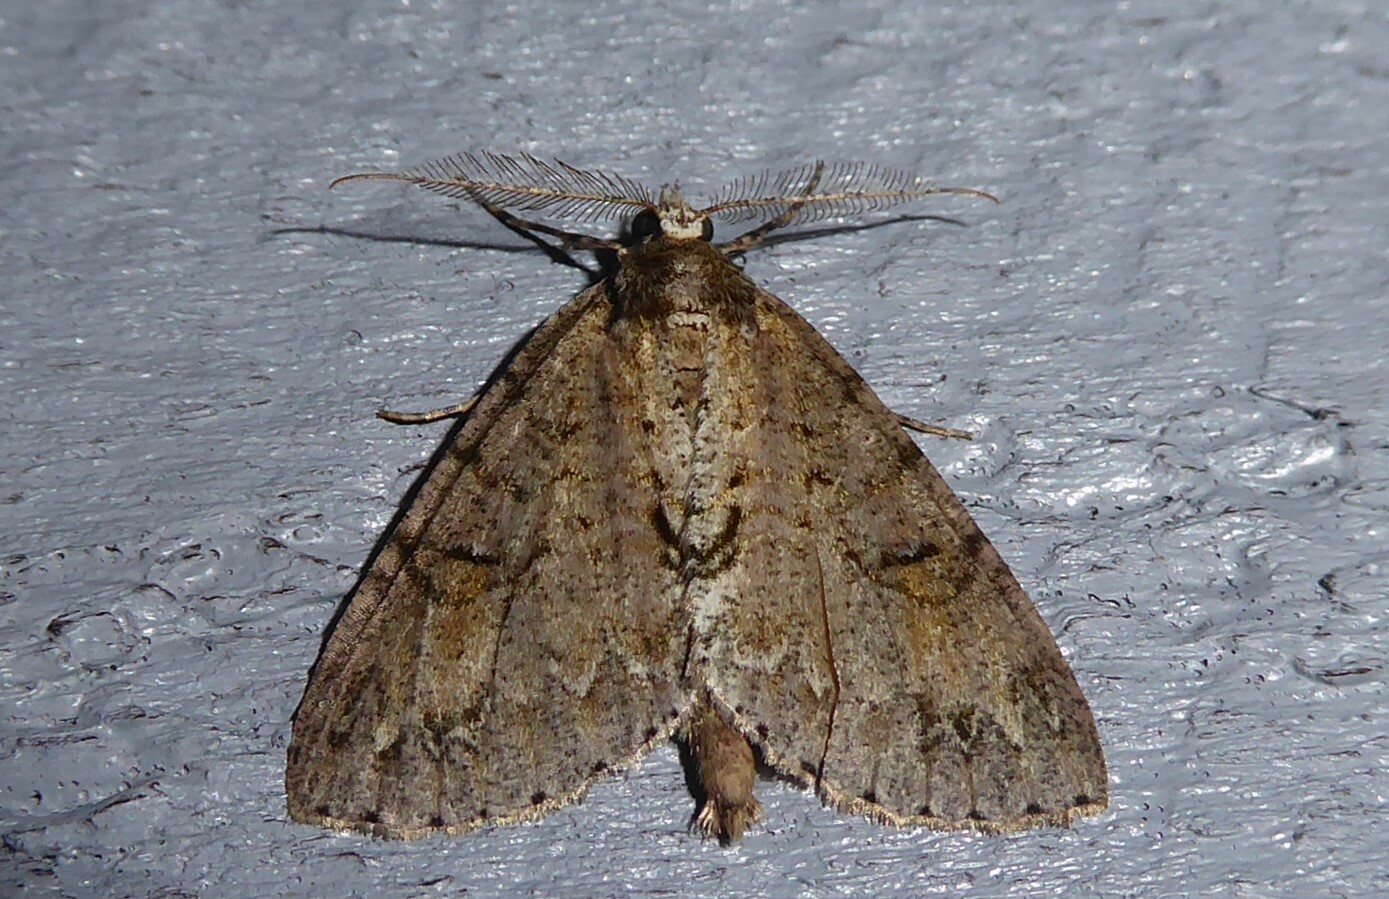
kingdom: Animalia
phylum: Arthropoda
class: Insecta
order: Lepidoptera
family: Geometridae
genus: Pseudocoremia
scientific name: Pseudocoremia suavis
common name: Common forest looper
